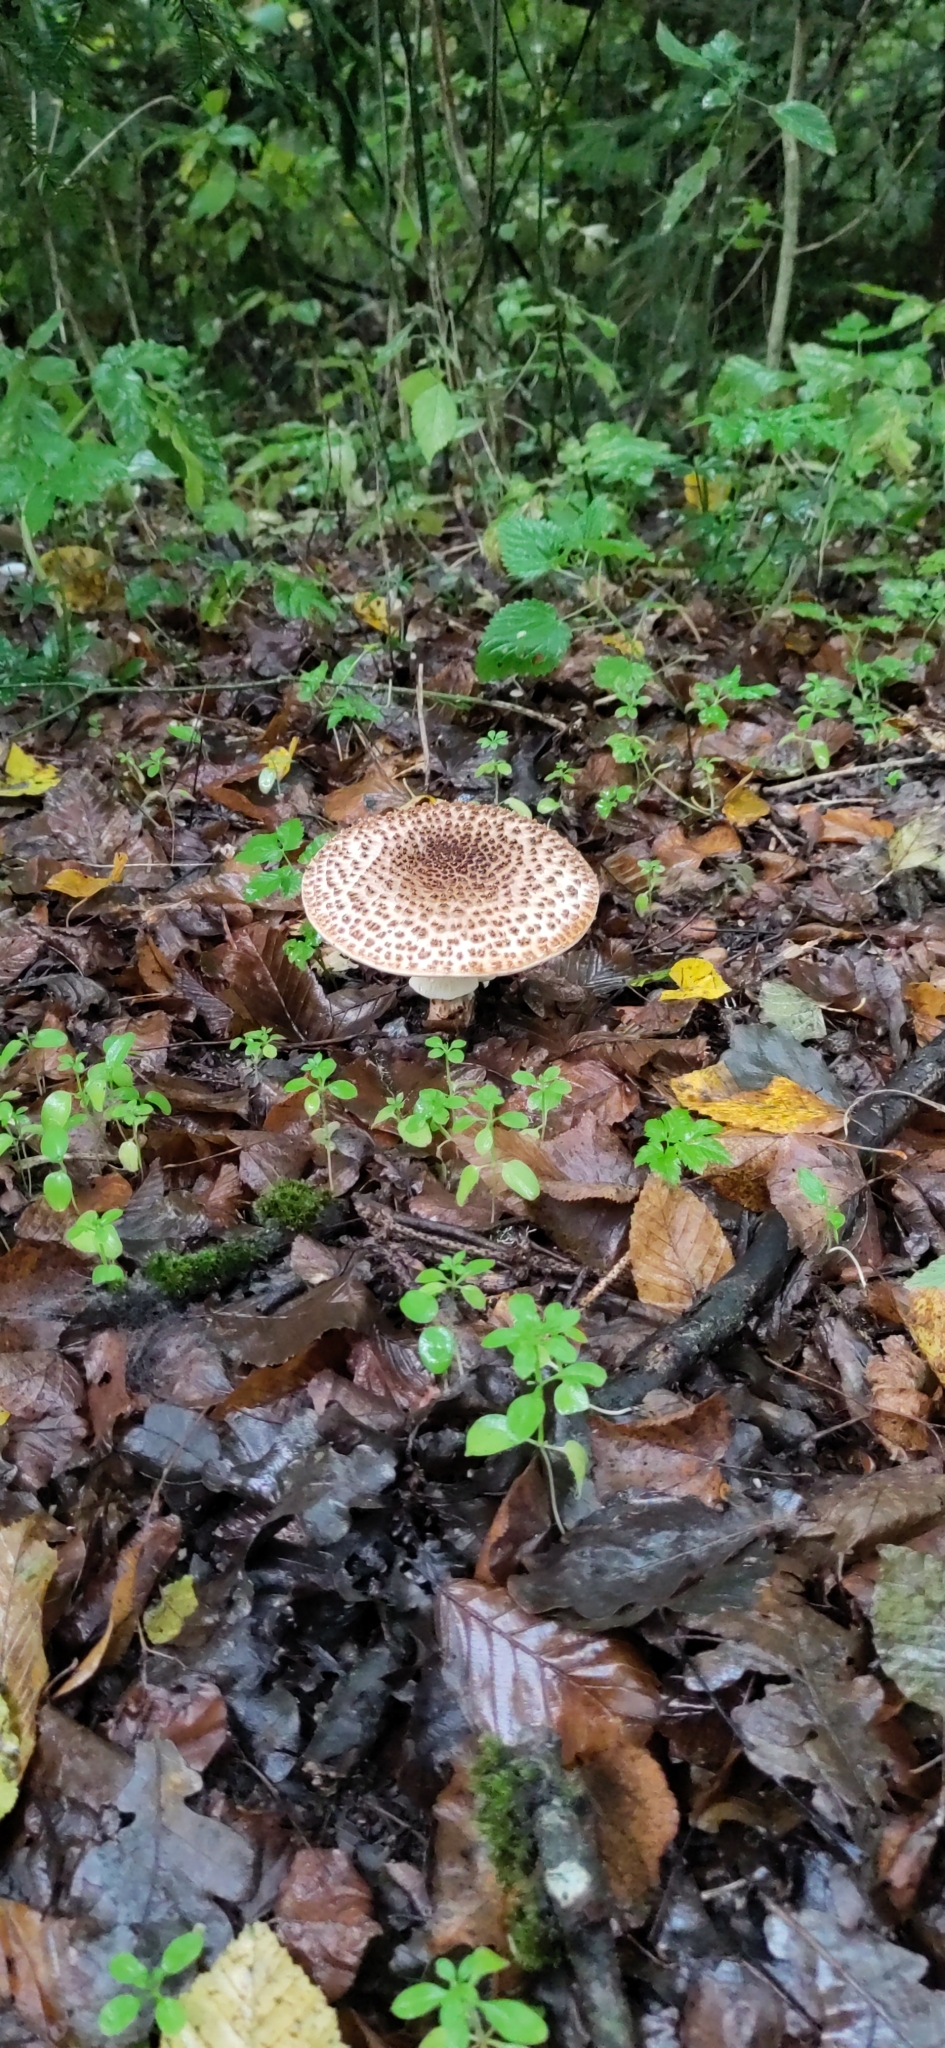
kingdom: Fungi
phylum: Basidiomycota
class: Agaricomycetes
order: Agaricales
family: Agaricaceae
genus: Echinoderma
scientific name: Echinoderma asperum
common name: Freckled dapperling
